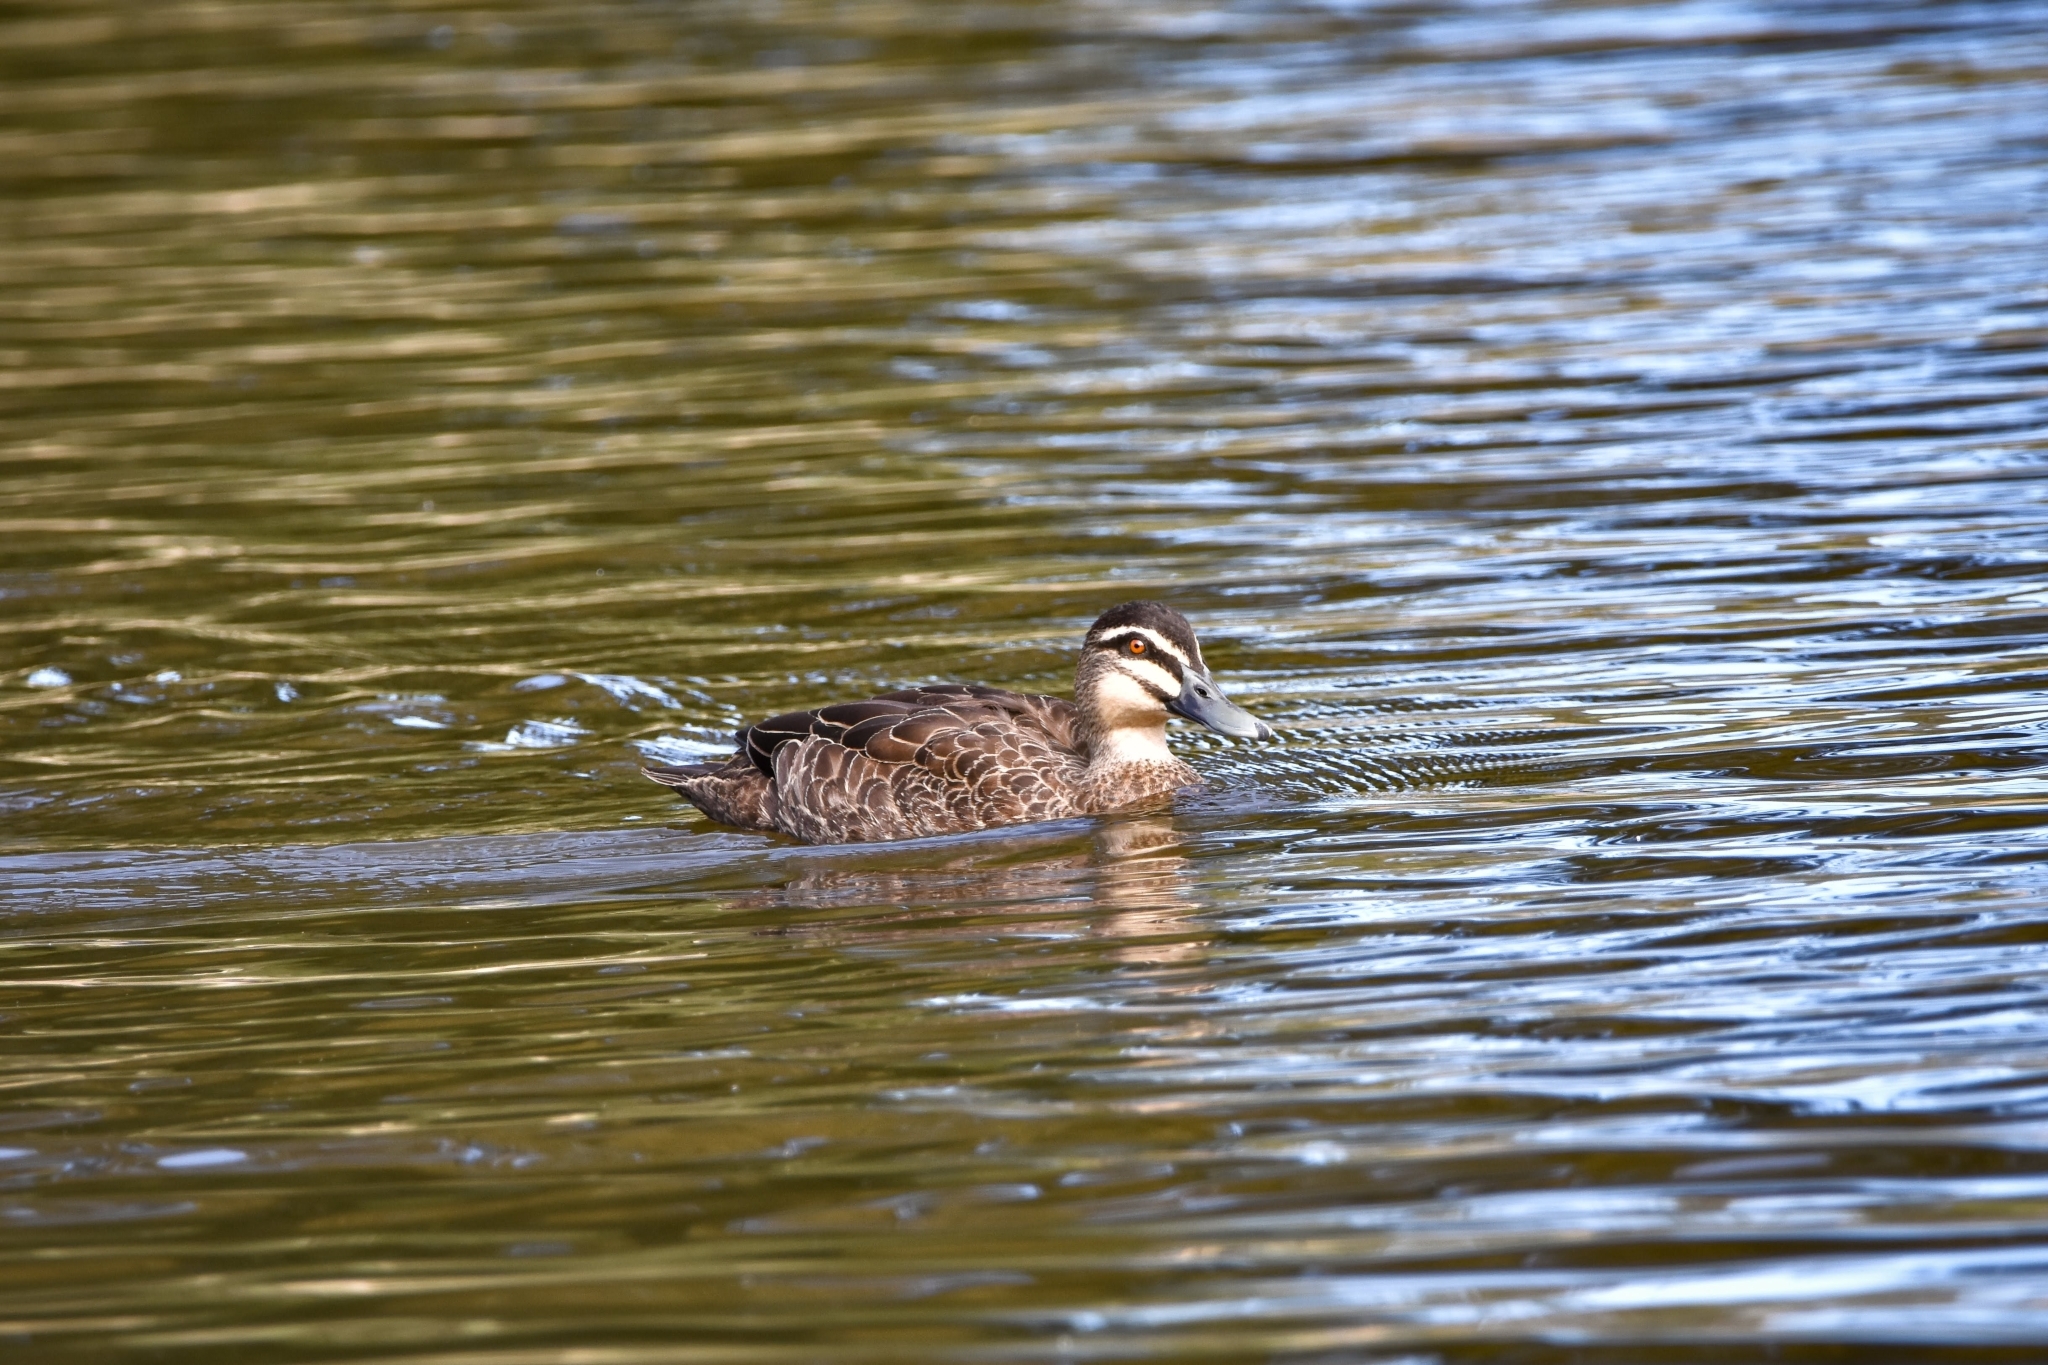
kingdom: Animalia
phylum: Chordata
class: Aves
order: Anseriformes
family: Anatidae
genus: Anas
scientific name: Anas superciliosa
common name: Pacific black duck
